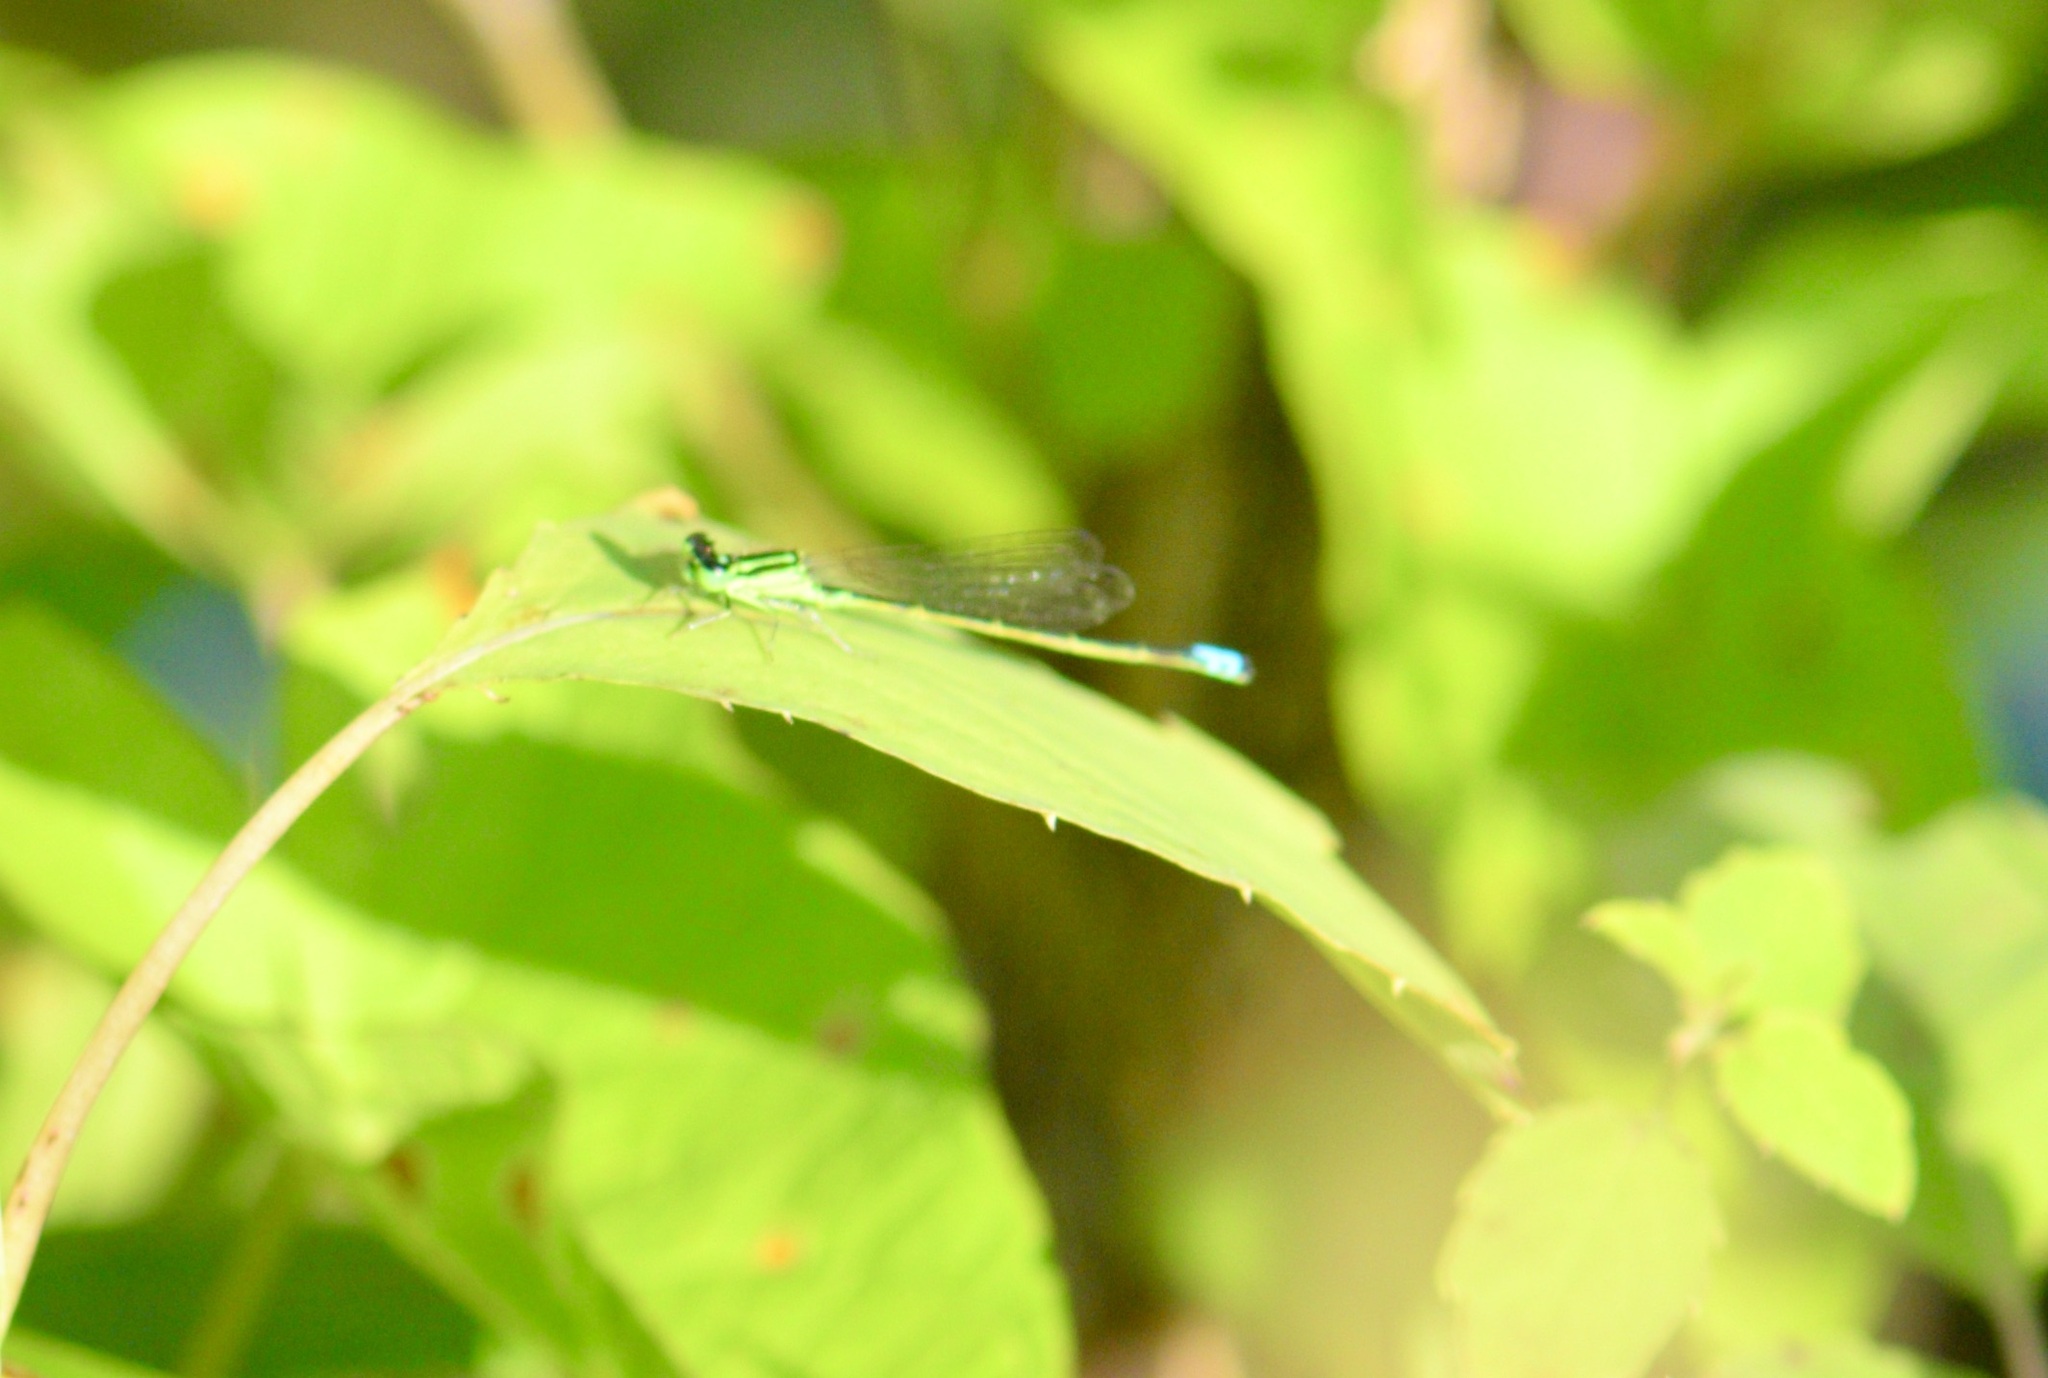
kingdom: Animalia
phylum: Arthropoda
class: Insecta
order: Odonata
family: Coenagrionidae
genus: Ischnura
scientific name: Ischnura verticalis
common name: Eastern forktail
